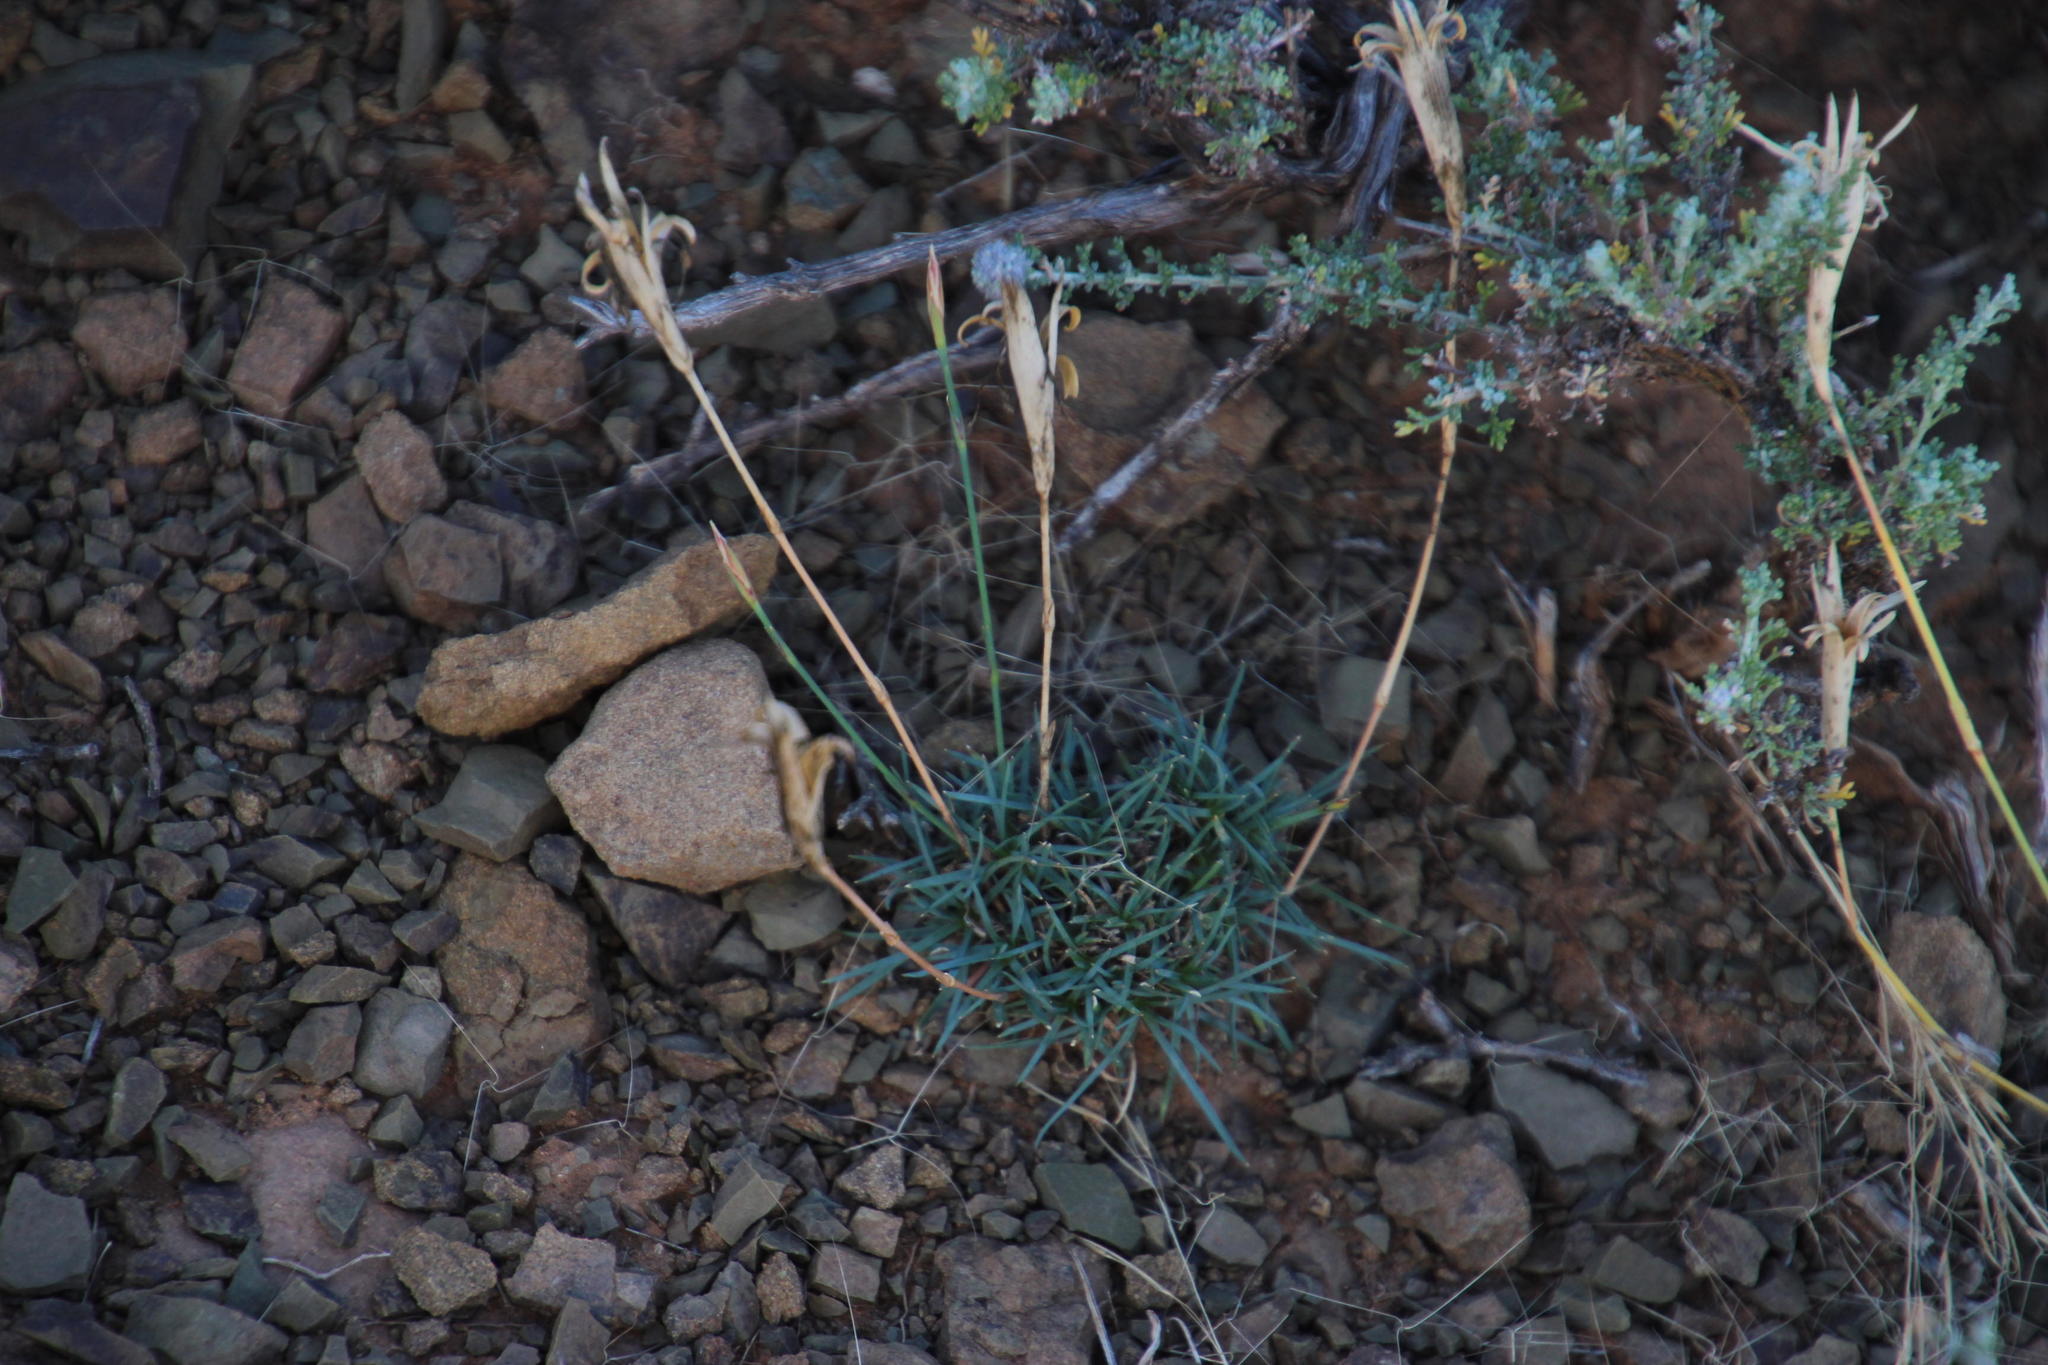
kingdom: Plantae
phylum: Tracheophyta
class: Magnoliopsida
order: Caryophyllales
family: Caryophyllaceae
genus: Dianthus
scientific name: Dianthus micropetalus
